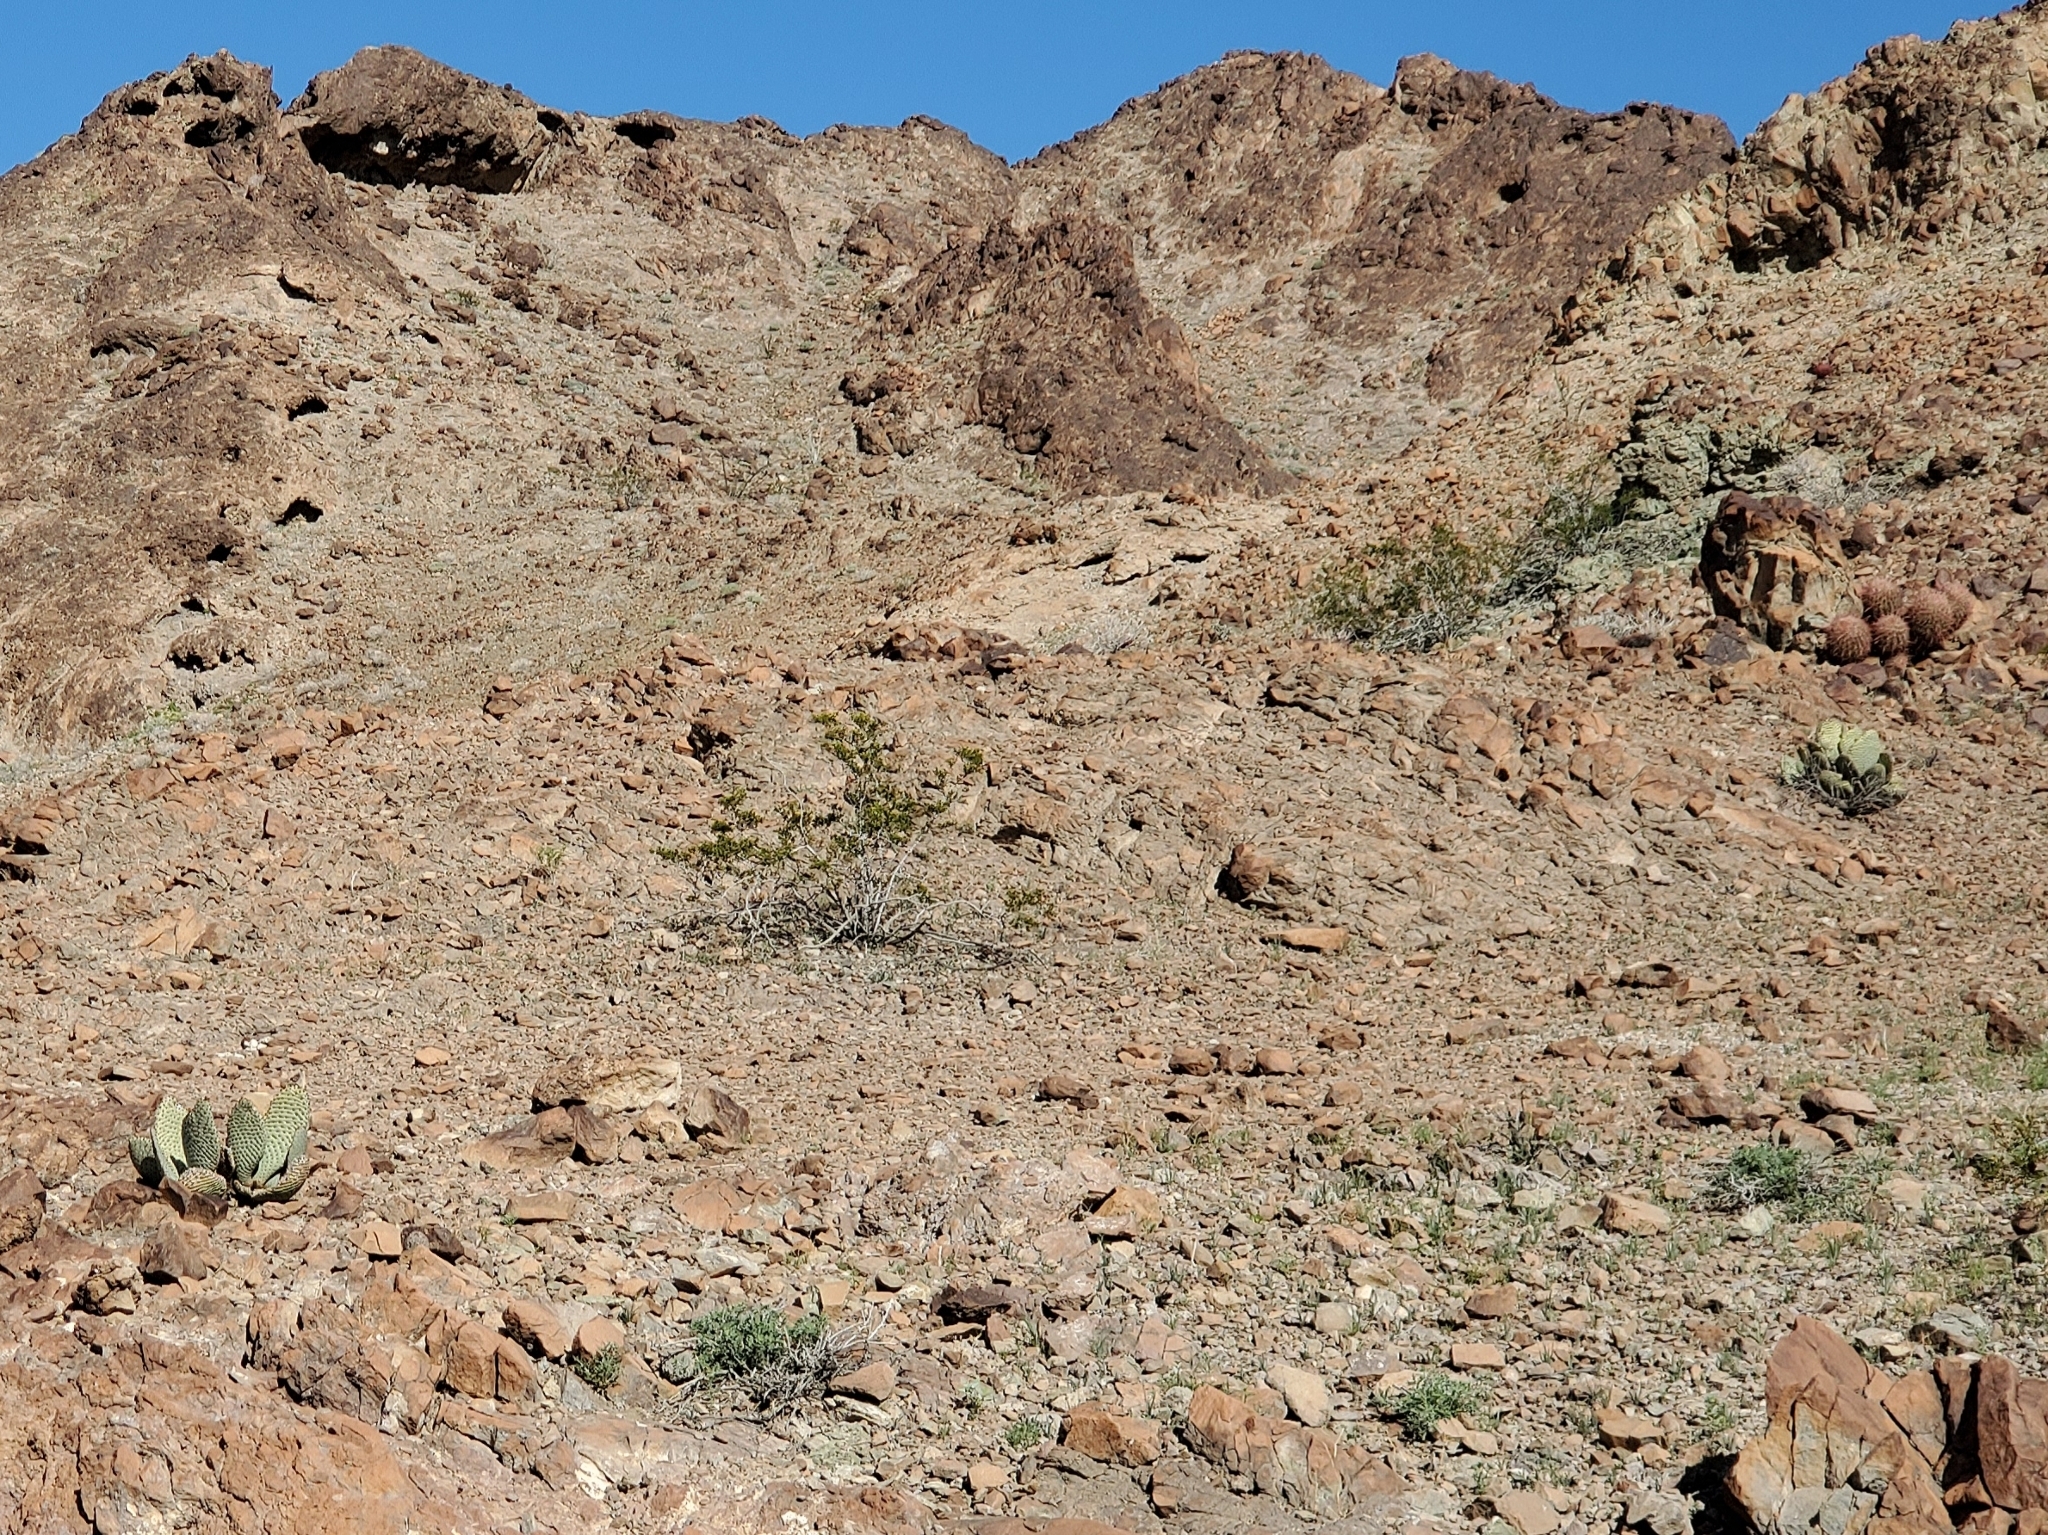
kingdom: Plantae
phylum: Tracheophyta
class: Magnoliopsida
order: Caryophyllales
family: Cactaceae
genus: Opuntia
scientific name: Opuntia basilaris
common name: Beavertail prickly-pear
